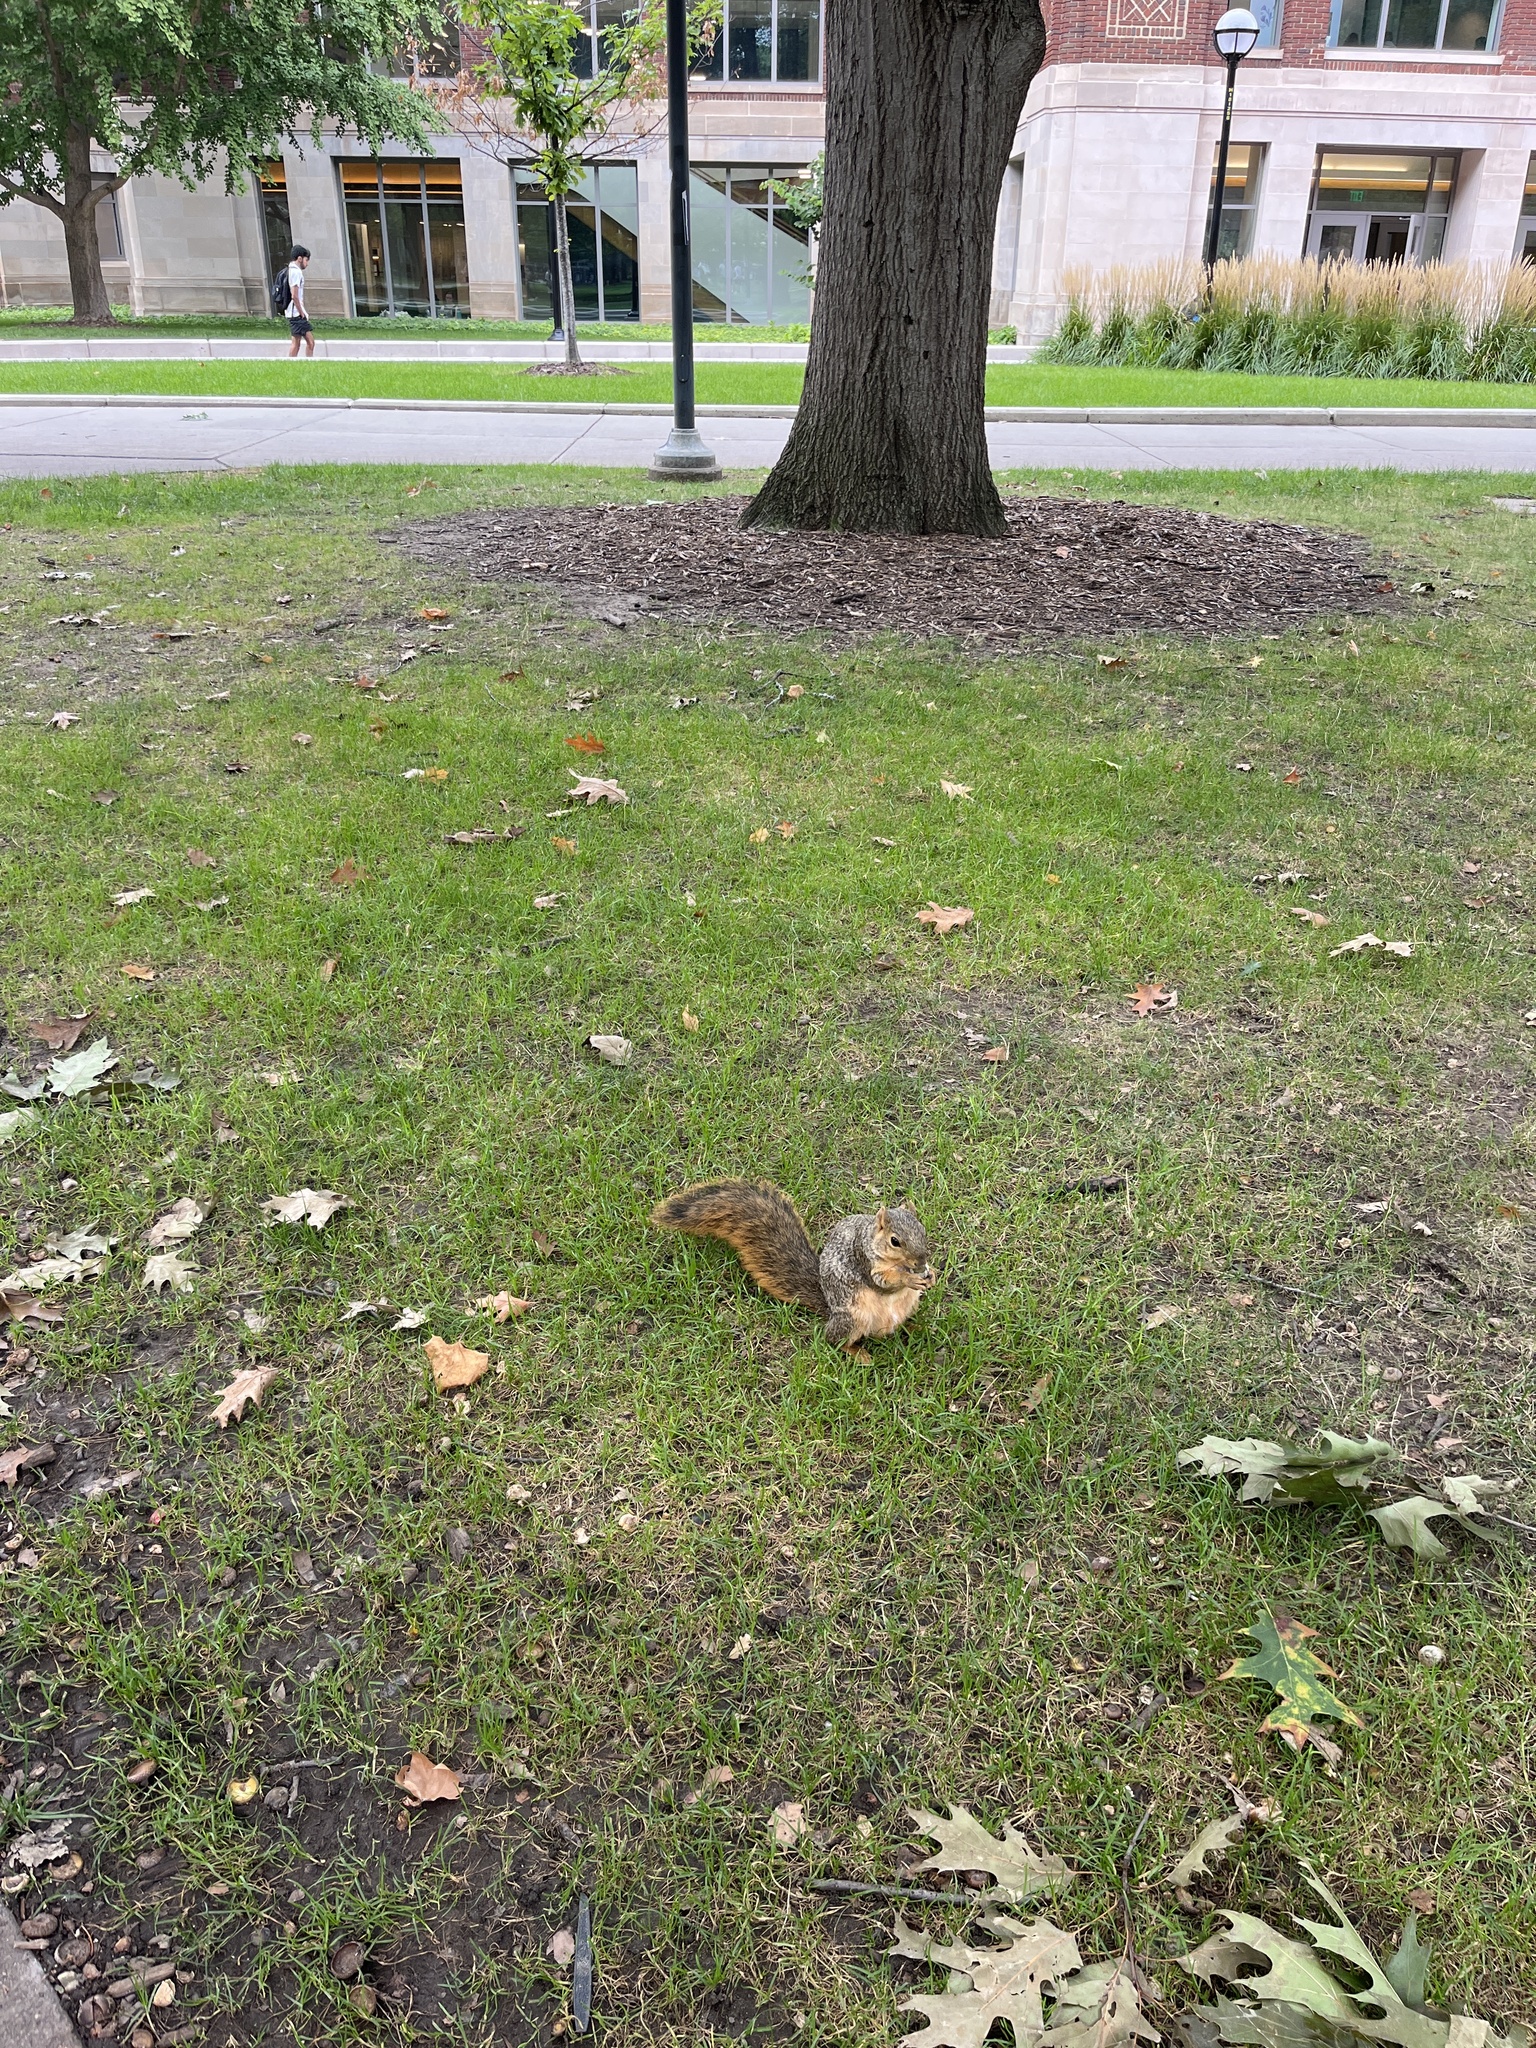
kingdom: Animalia
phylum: Chordata
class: Mammalia
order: Rodentia
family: Sciuridae
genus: Sciurus
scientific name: Sciurus niger
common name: Fox squirrel
